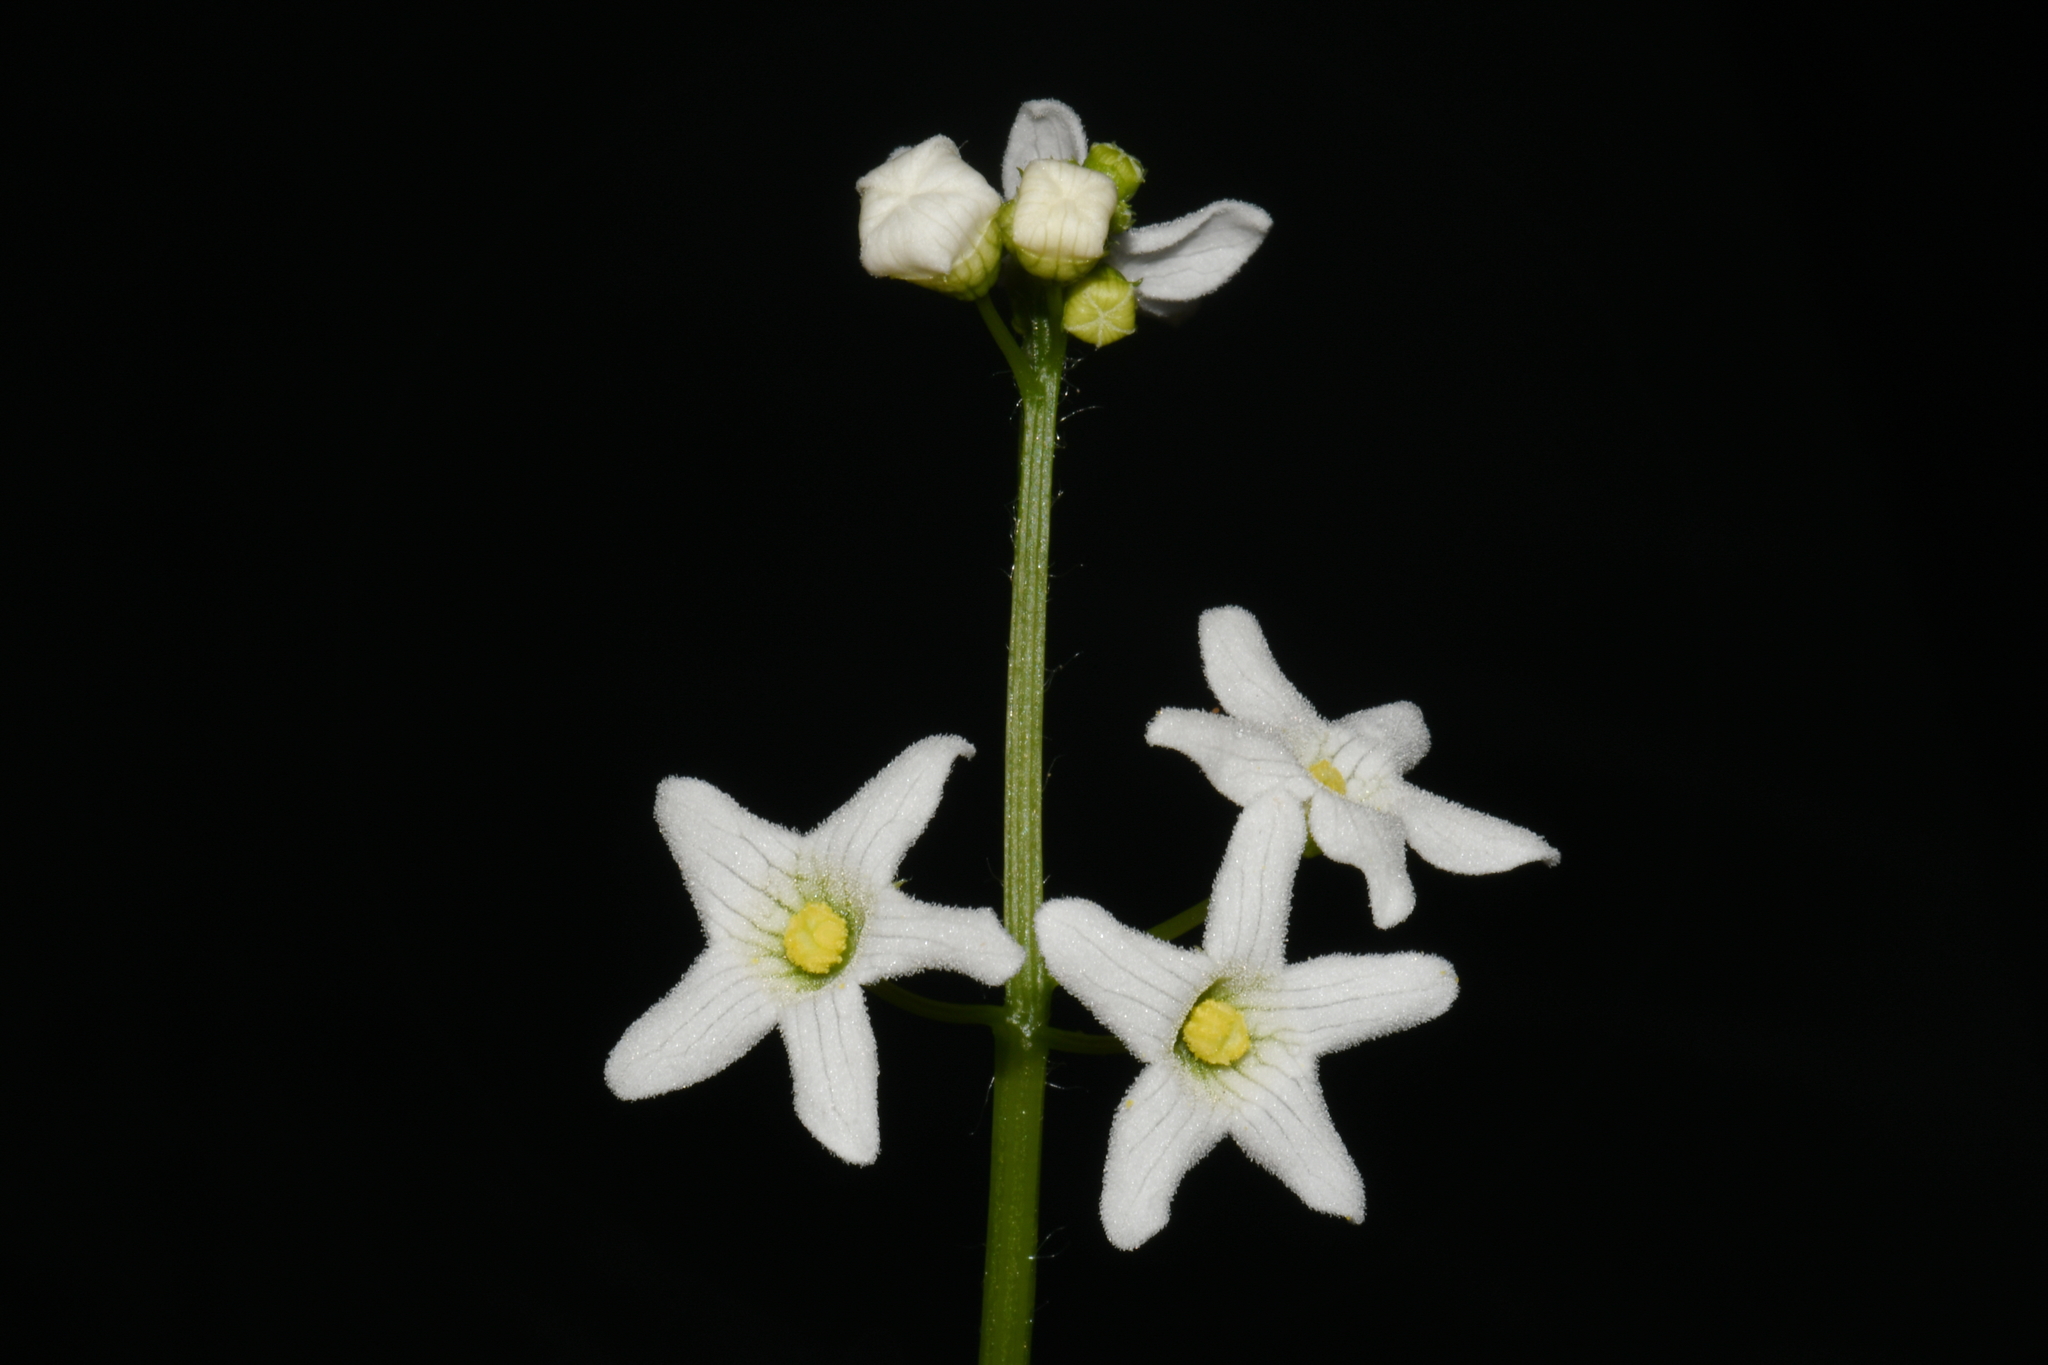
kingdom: Plantae
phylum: Tracheophyta
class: Magnoliopsida
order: Cucurbitales
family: Cucurbitaceae
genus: Marah
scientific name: Marah oregana
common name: Coastal manroot
